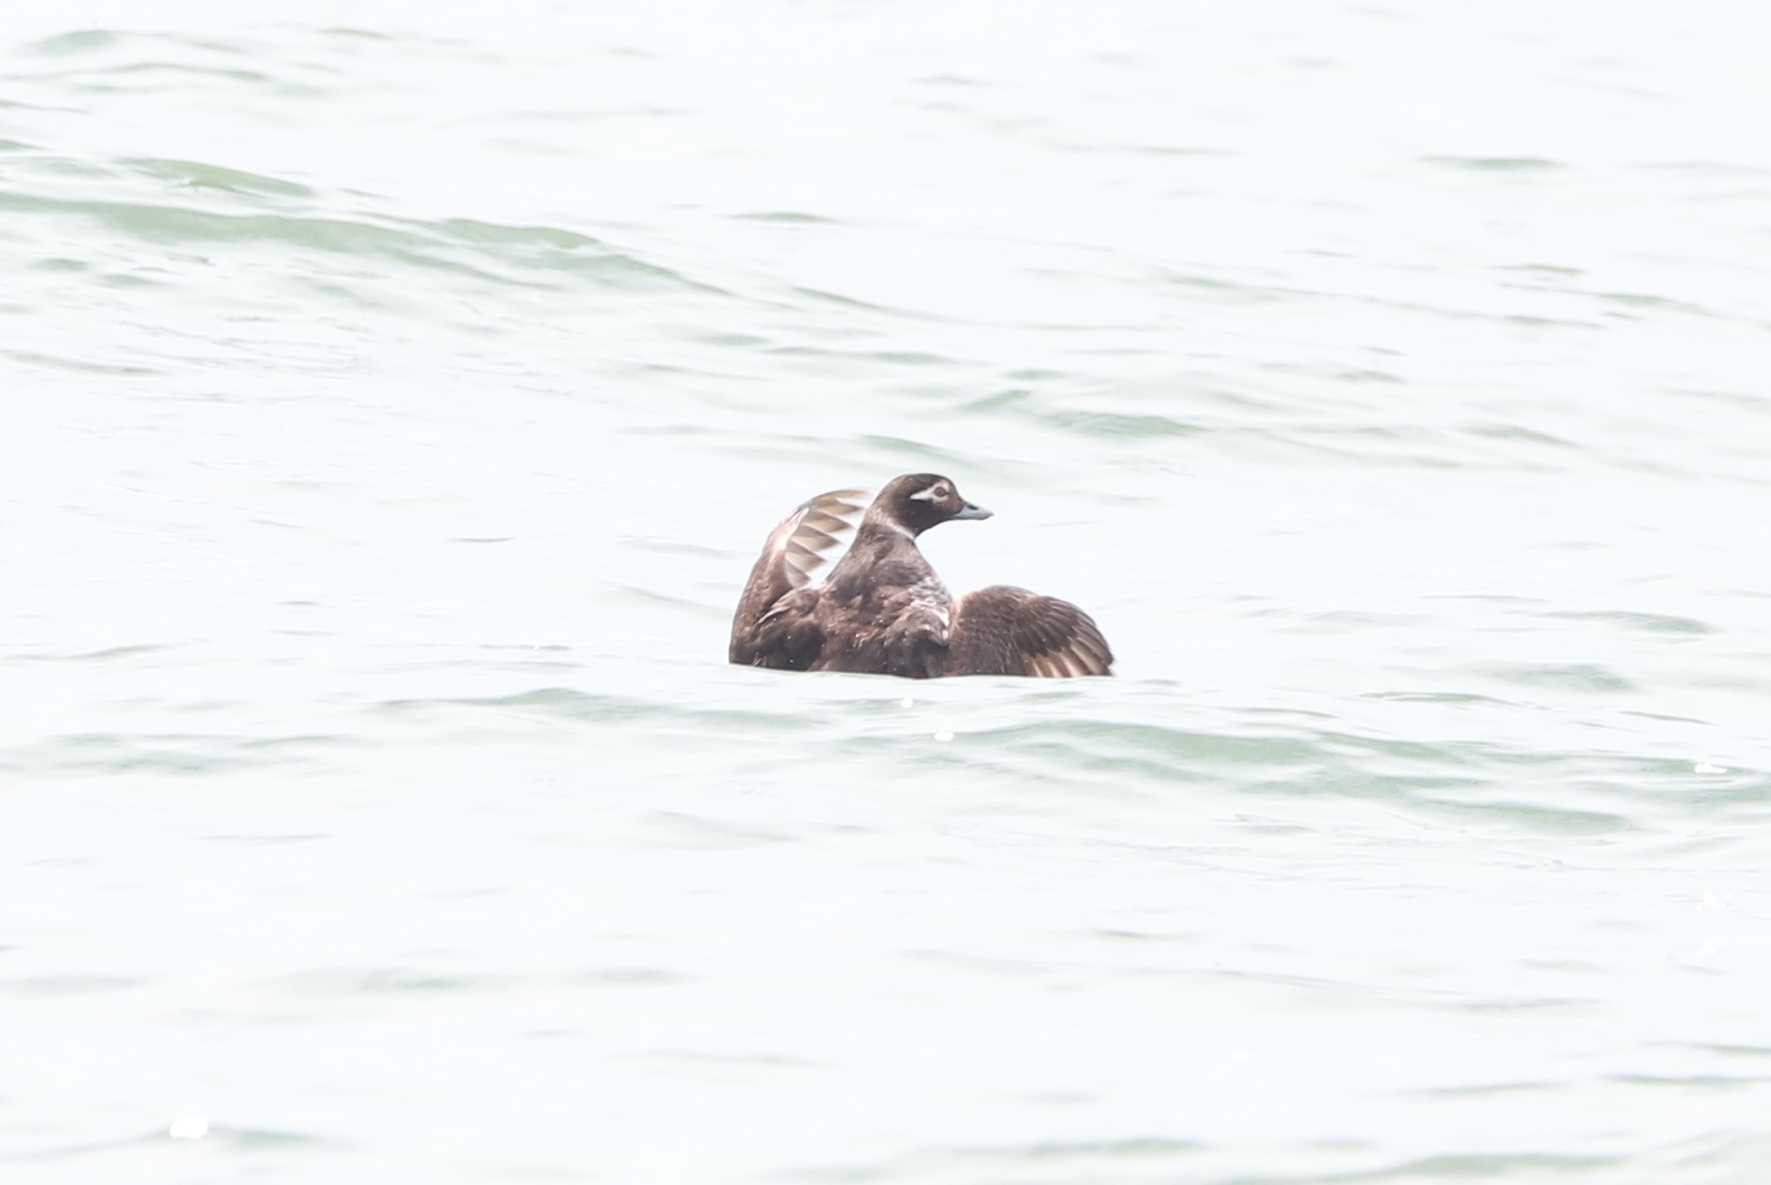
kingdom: Animalia
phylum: Chordata
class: Aves
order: Anseriformes
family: Anatidae
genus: Clangula
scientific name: Clangula hyemalis
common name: Long-tailed duck
